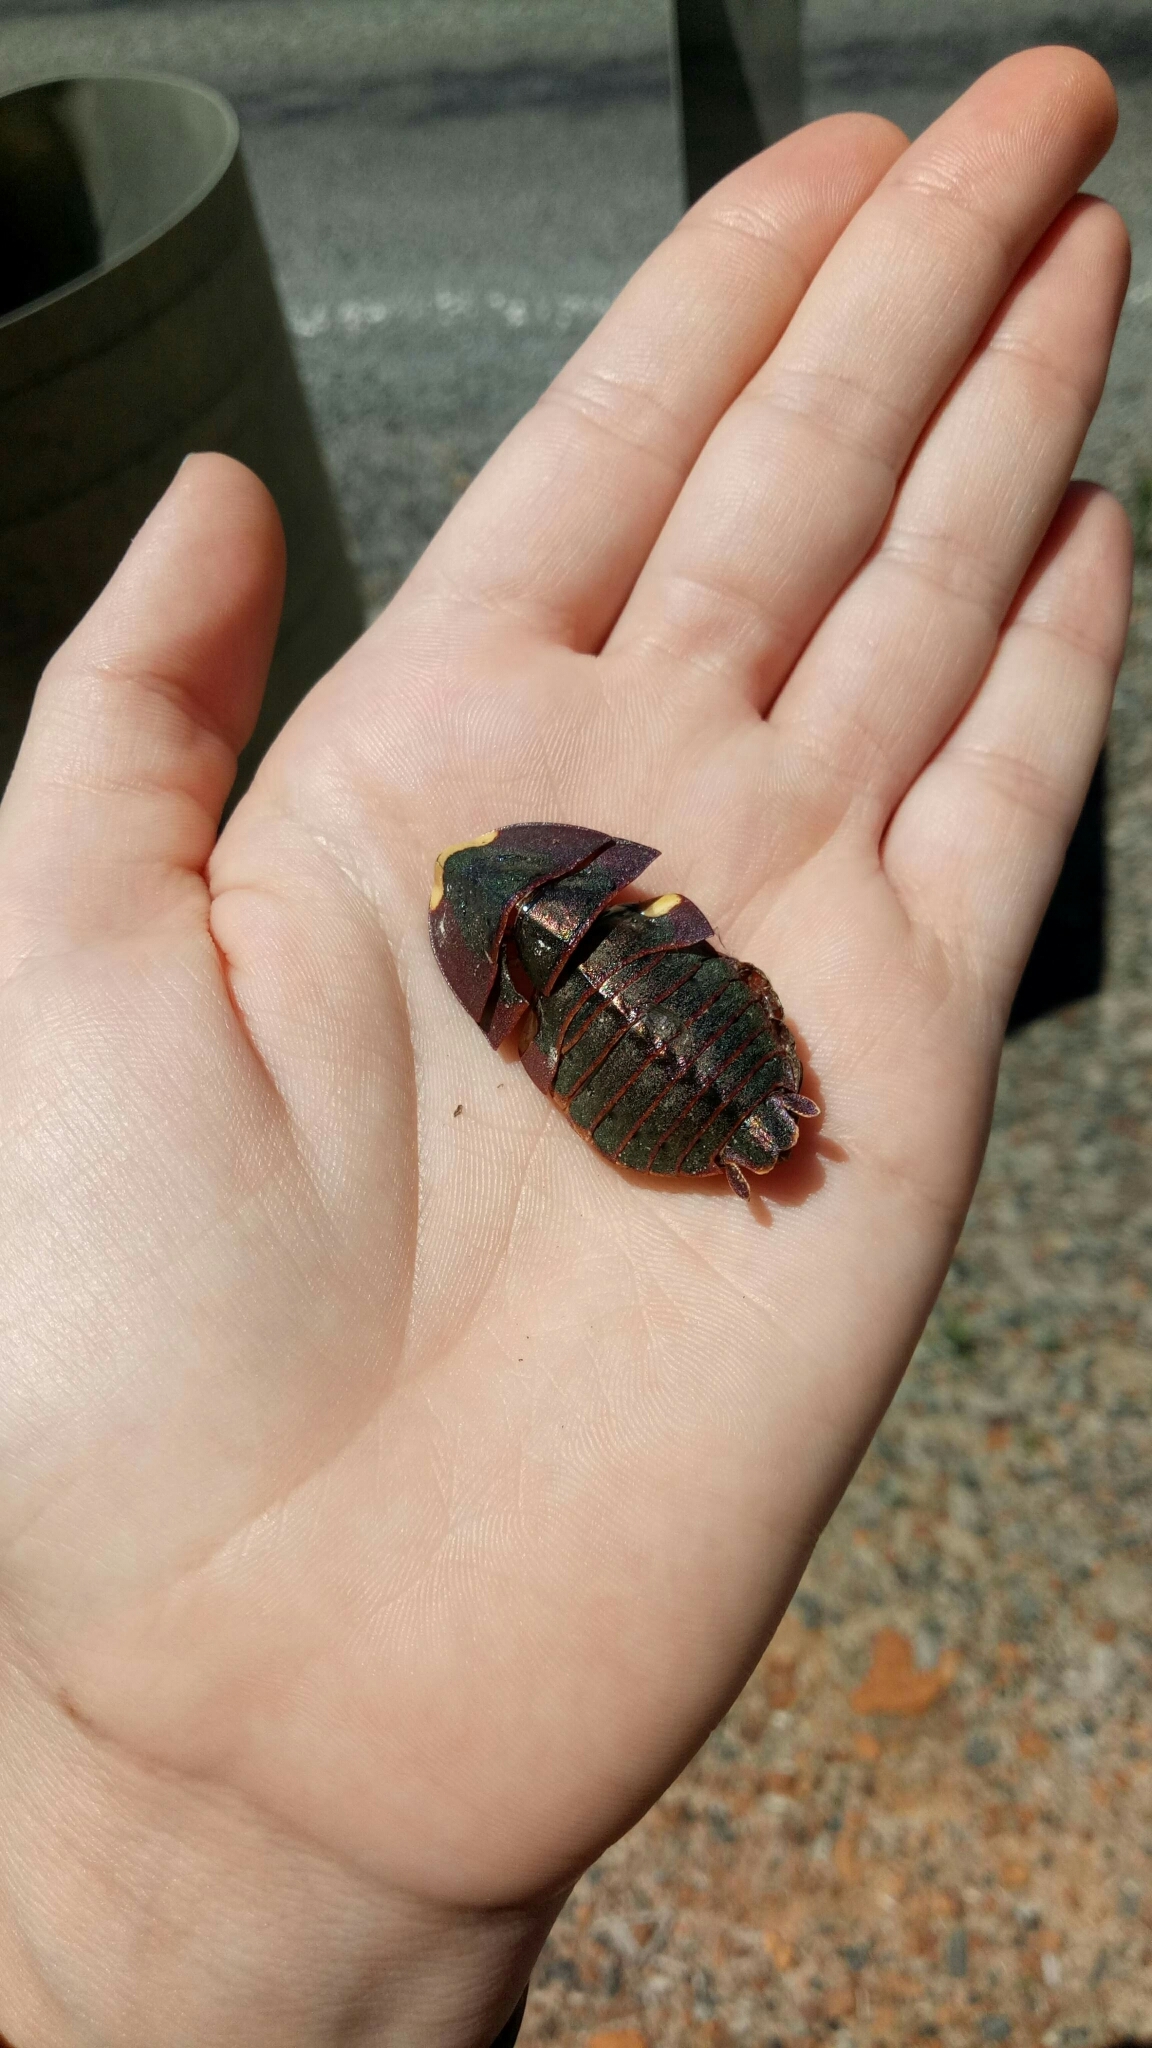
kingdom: Animalia
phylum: Arthropoda
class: Insecta
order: Blattodea
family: Blattidae
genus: Polyzosteria
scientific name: Polyzosteria cuprea
